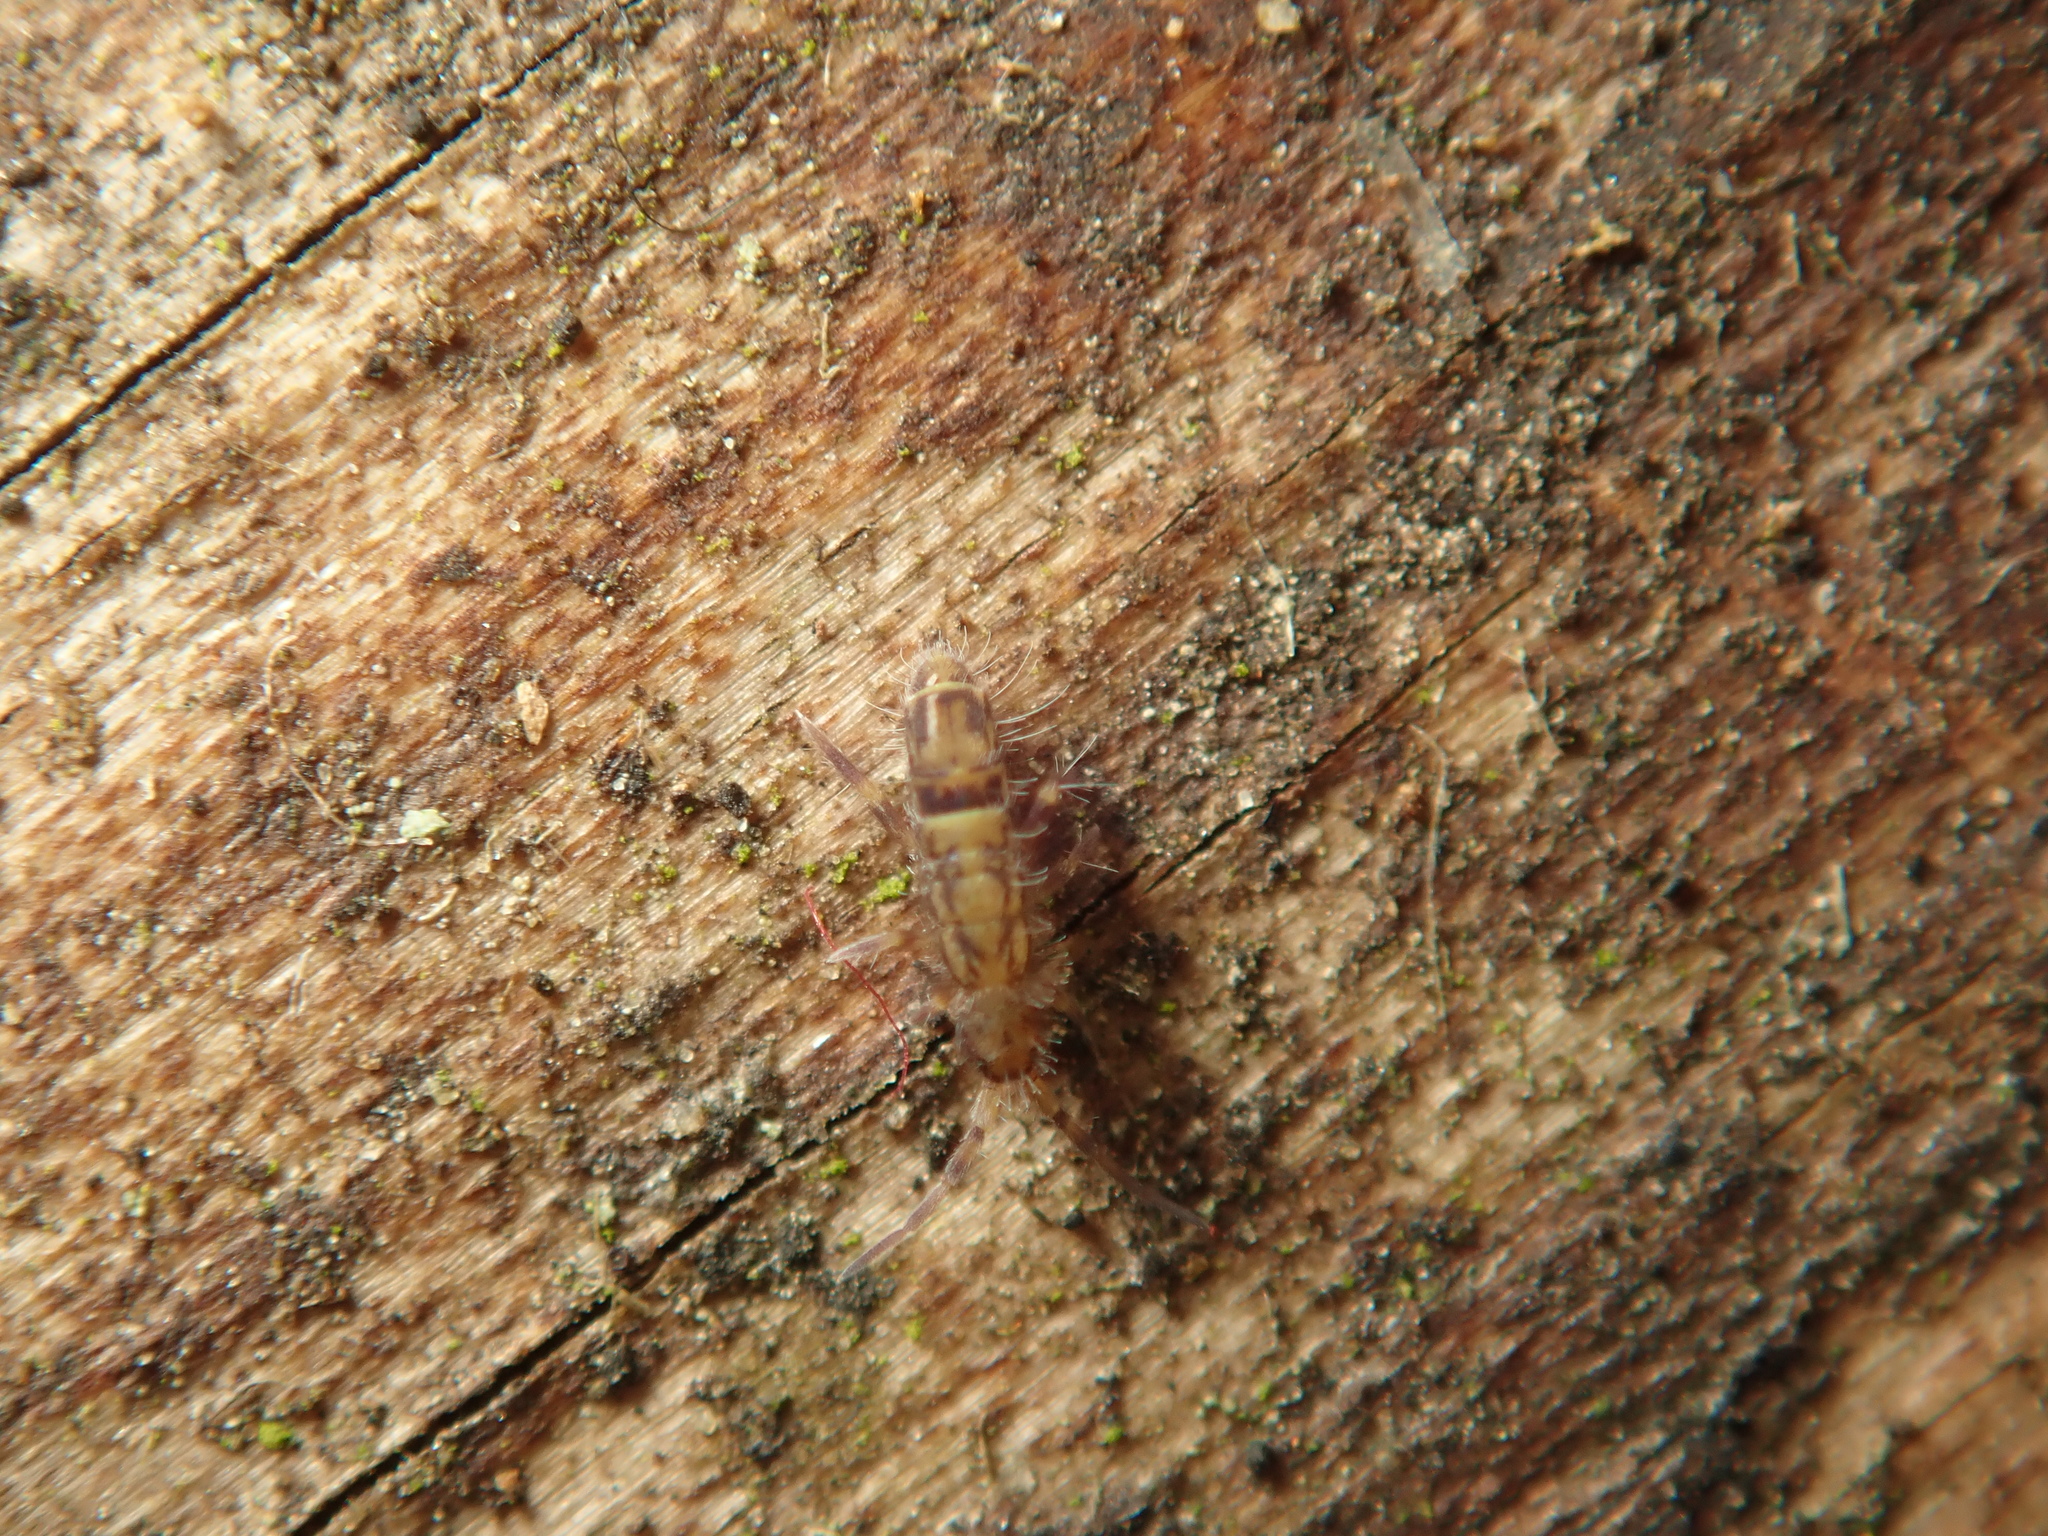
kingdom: Animalia
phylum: Arthropoda
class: Collembola
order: Entomobryomorpha
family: Orchesellidae
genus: Orchesella
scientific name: Orchesella cincta
